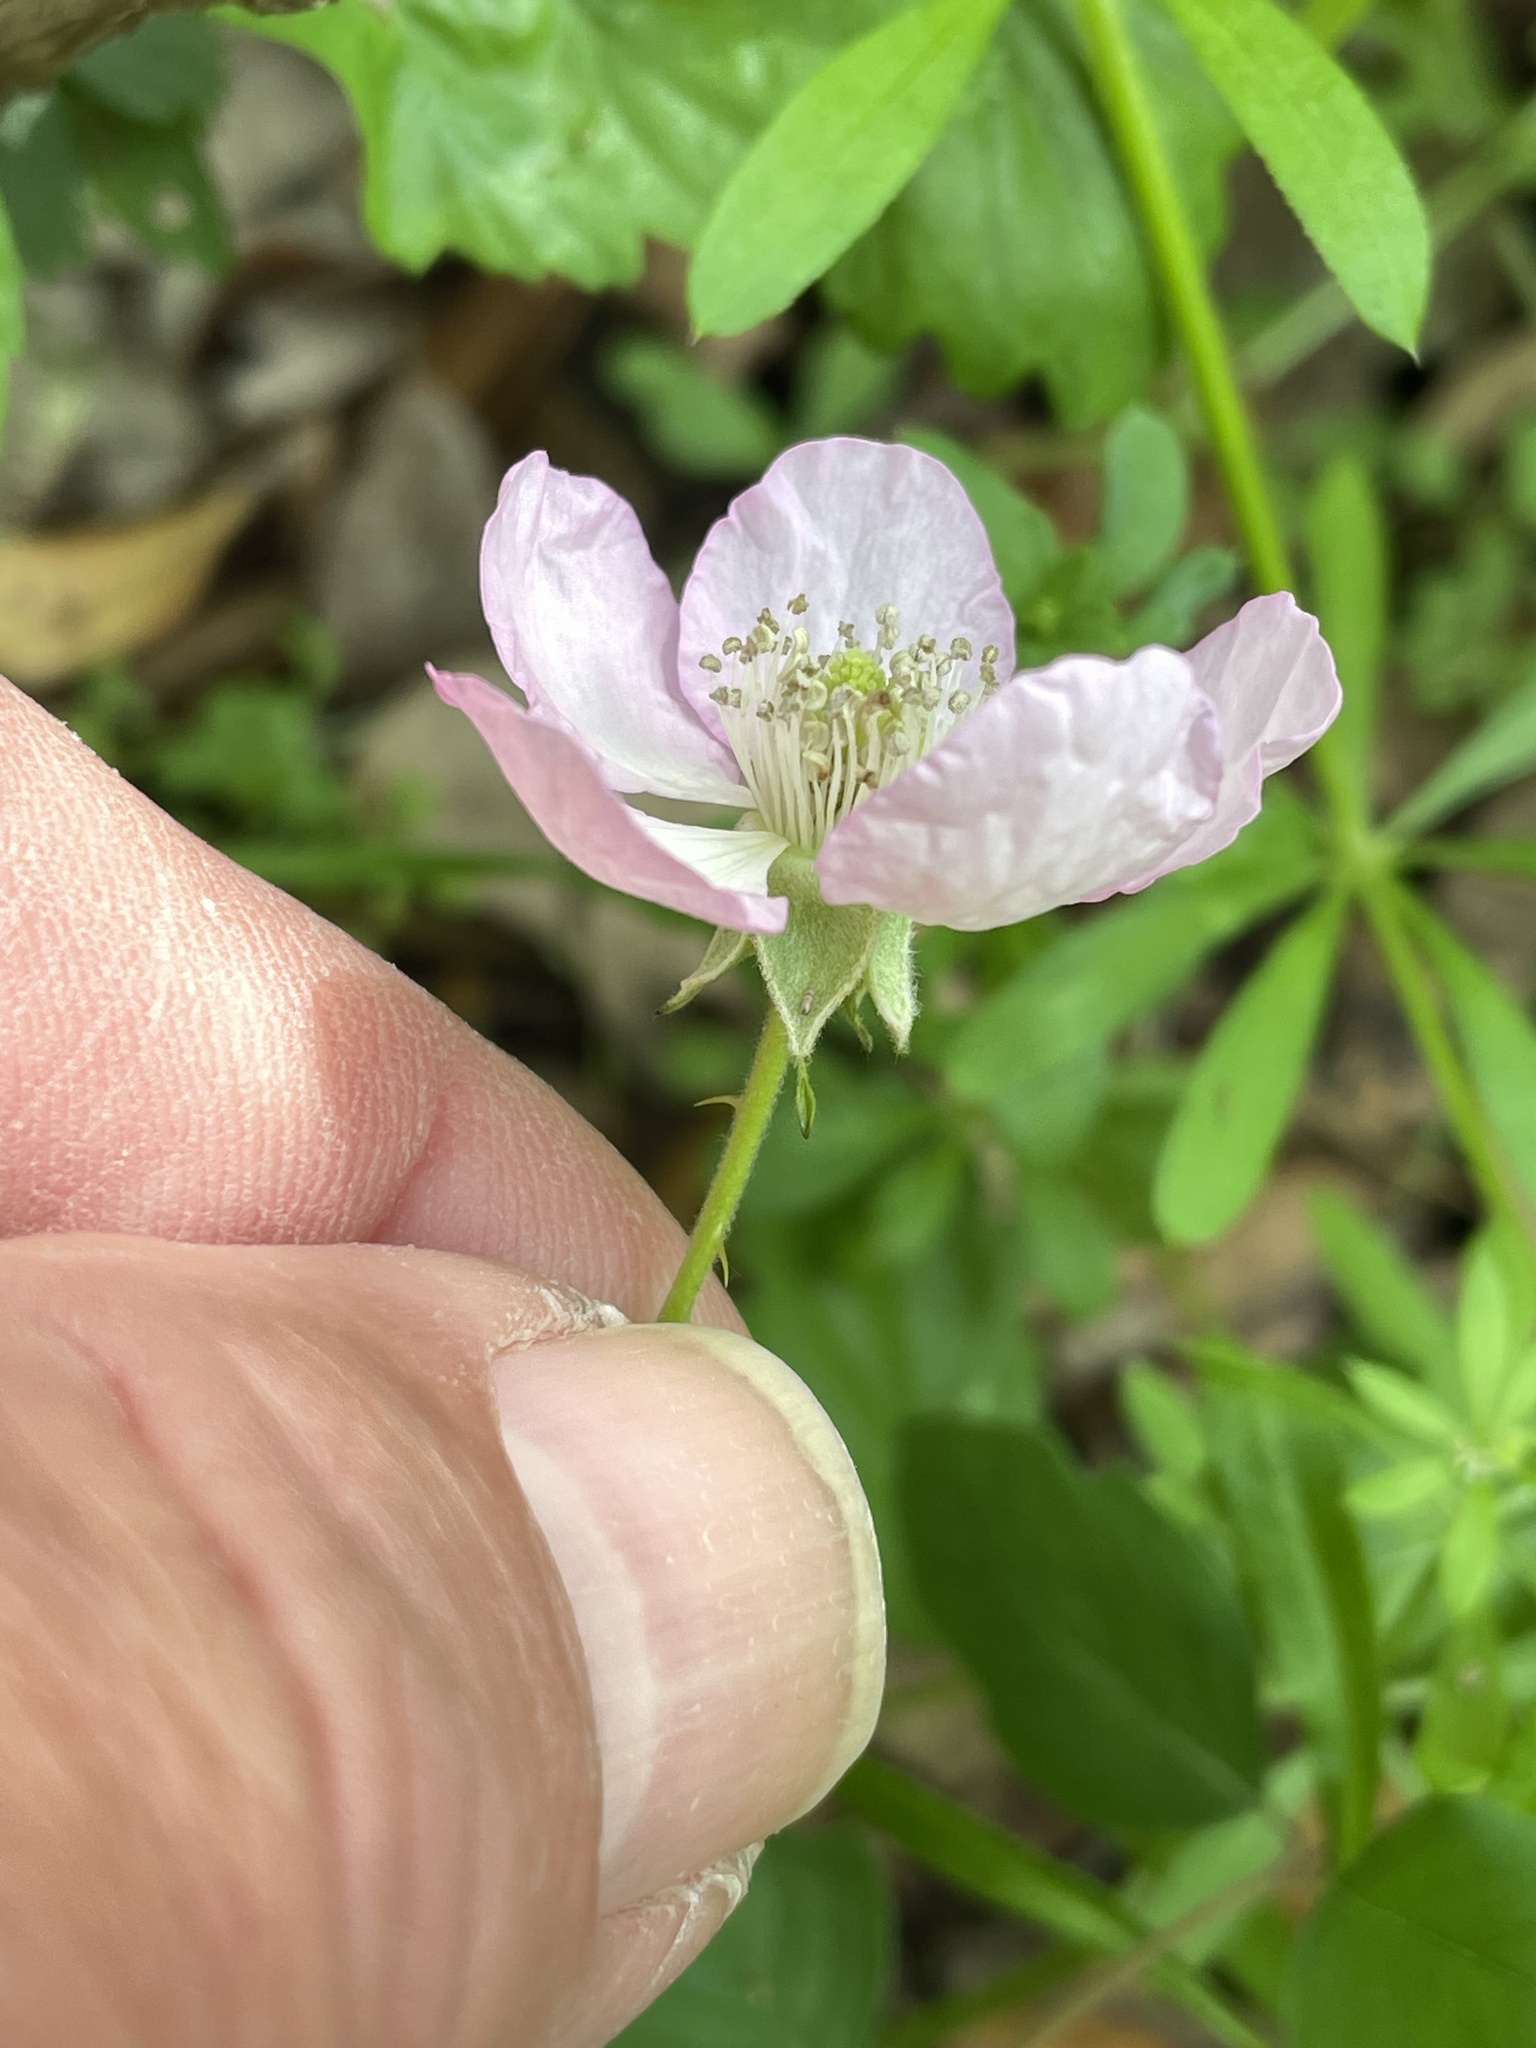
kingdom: Plantae
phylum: Tracheophyta
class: Magnoliopsida
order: Rosales
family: Rosaceae
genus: Rubus
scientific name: Rubus trivialis
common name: Southern dewberry
